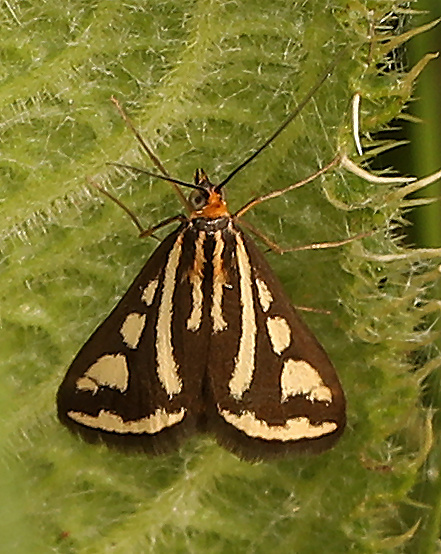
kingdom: Animalia
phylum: Arthropoda
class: Insecta
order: Lepidoptera
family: Crambidae
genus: Loxostege
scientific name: Loxostege venustalis
